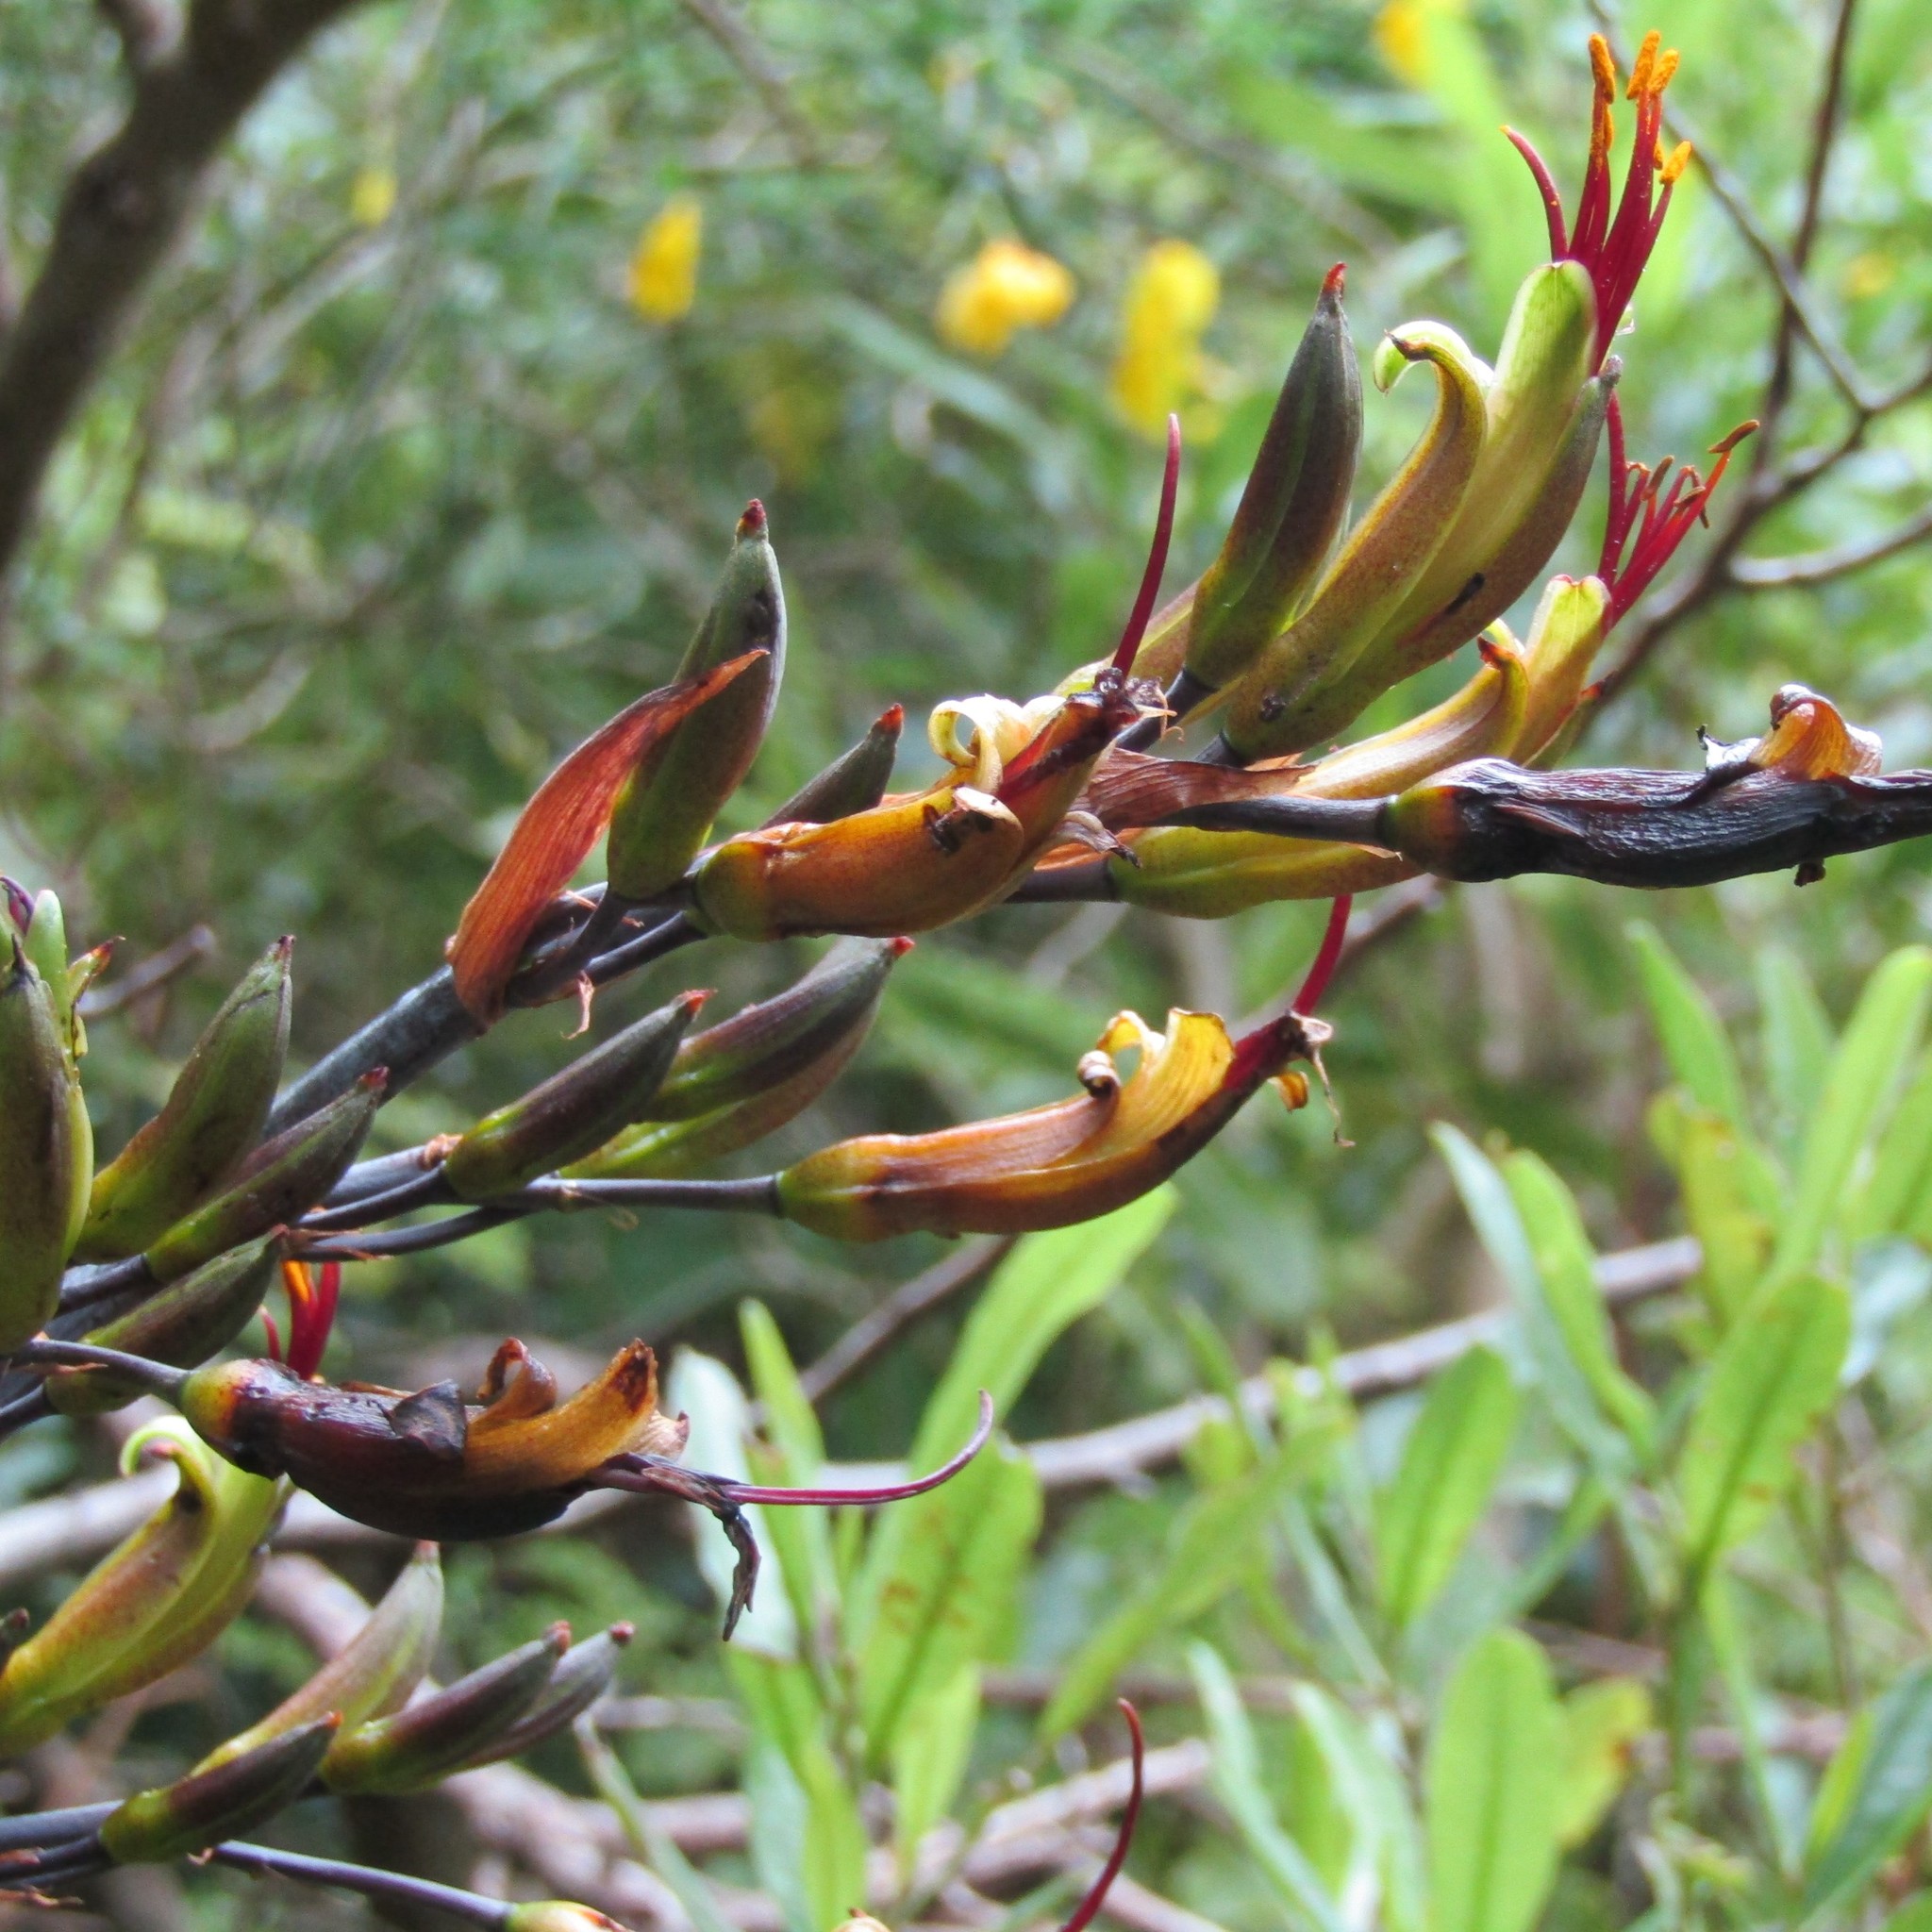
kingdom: Plantae
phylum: Tracheophyta
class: Liliopsida
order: Asparagales
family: Asphodelaceae
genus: Phormium
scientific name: Phormium colensoi
